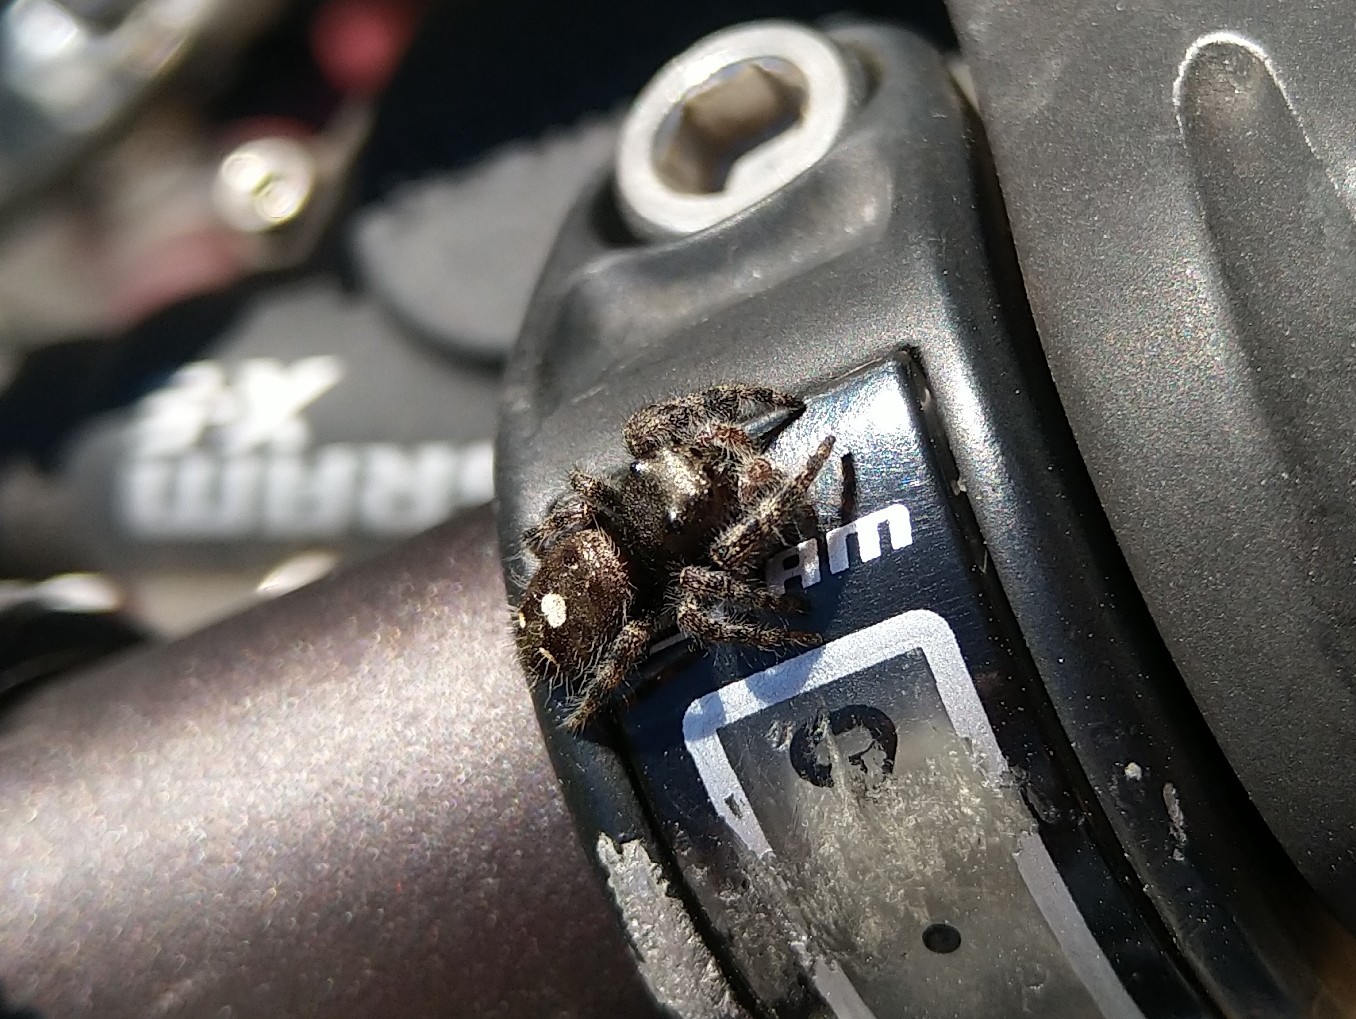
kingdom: Animalia
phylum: Arthropoda
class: Arachnida
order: Araneae
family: Salticidae
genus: Phidippus
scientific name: Phidippus audax
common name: Bold jumper
